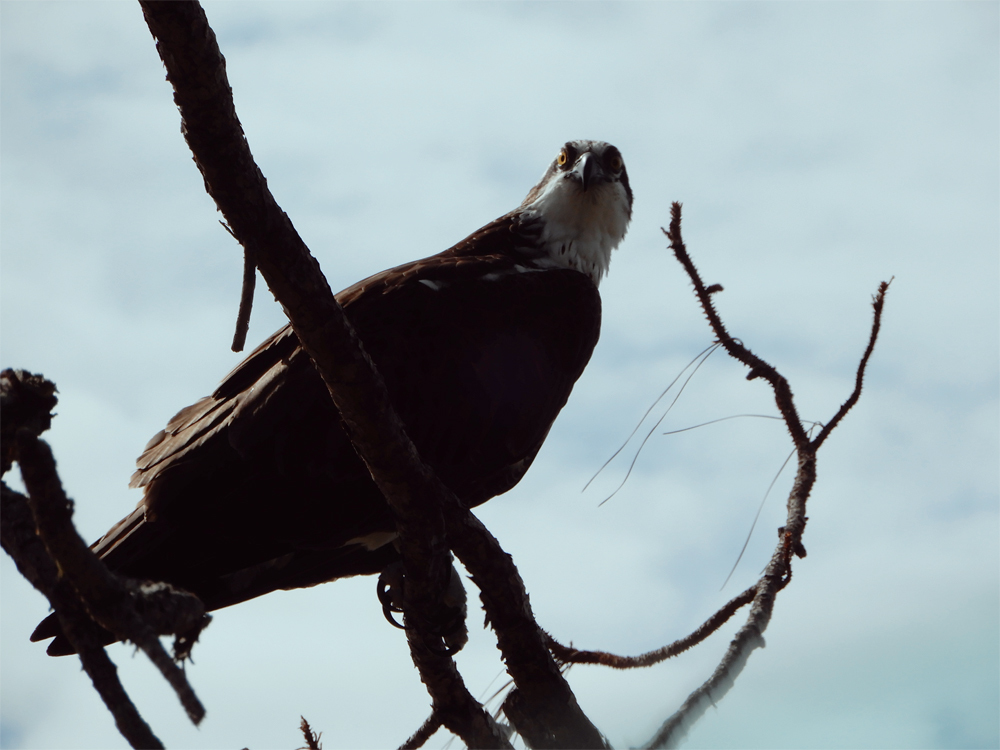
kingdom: Animalia
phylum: Chordata
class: Aves
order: Accipitriformes
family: Pandionidae
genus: Pandion
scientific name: Pandion haliaetus
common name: Osprey
